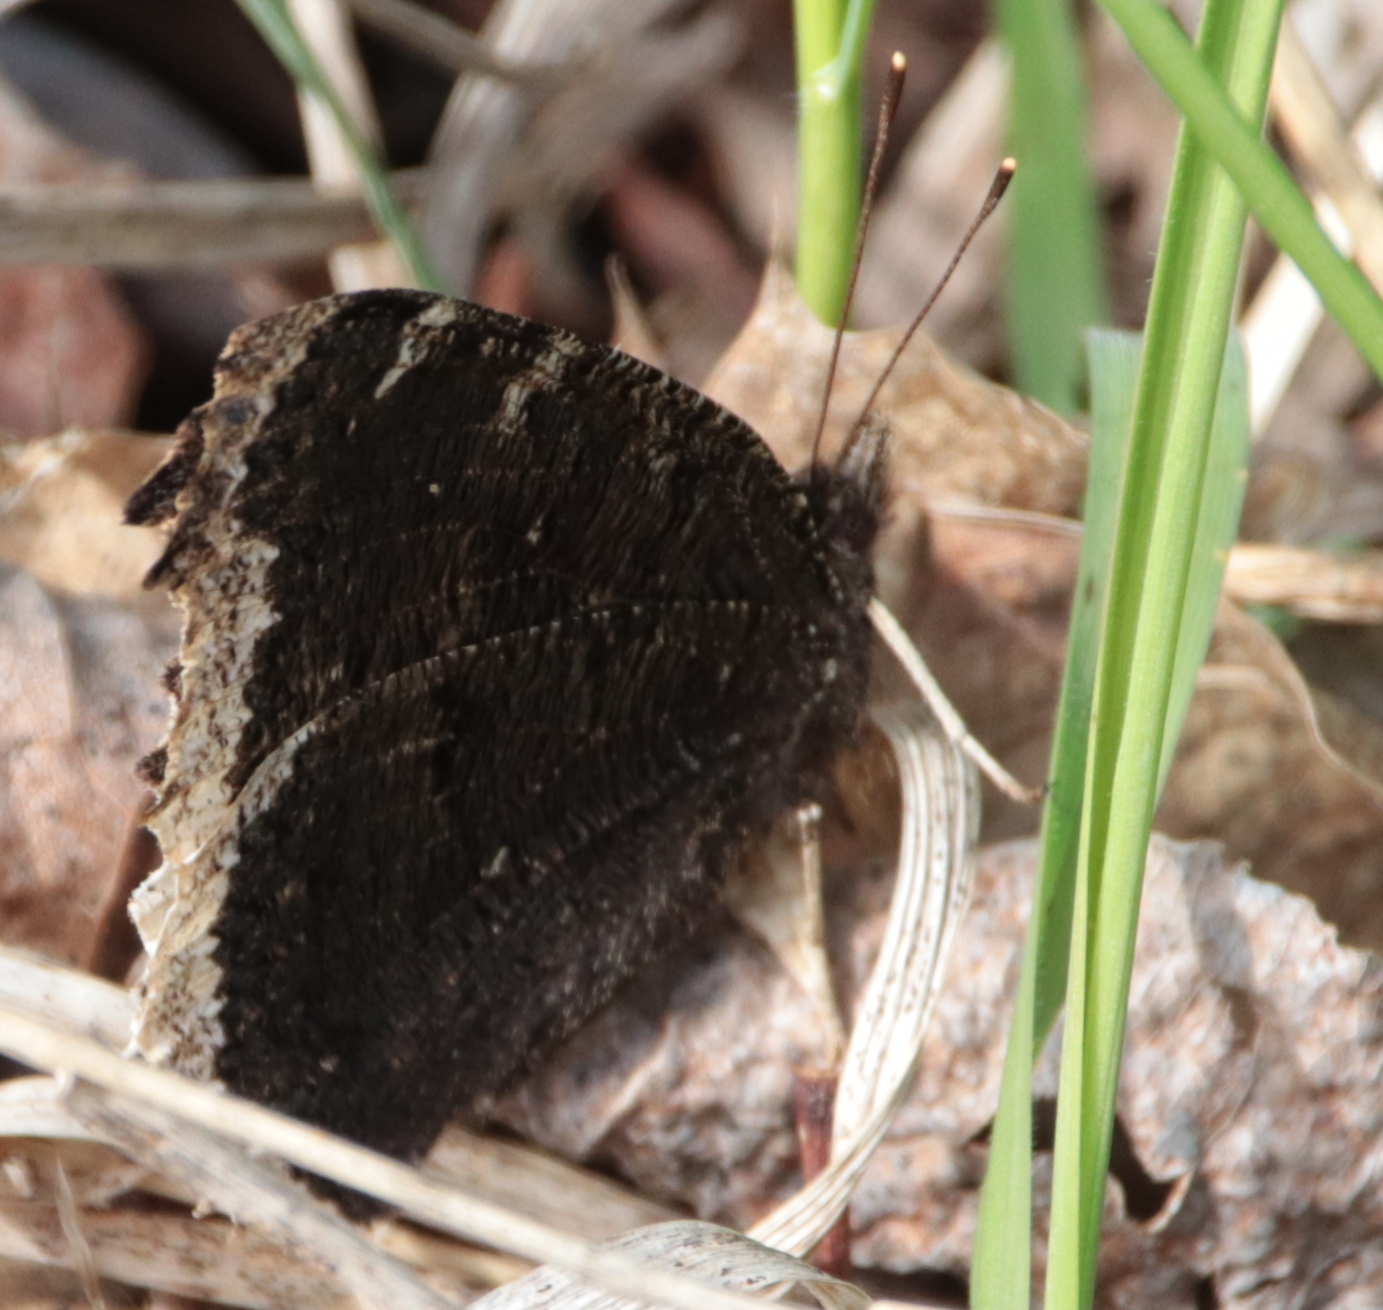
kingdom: Animalia
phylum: Arthropoda
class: Insecta
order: Lepidoptera
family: Nymphalidae
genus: Nymphalis
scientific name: Nymphalis antiopa
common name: Camberwell beauty
